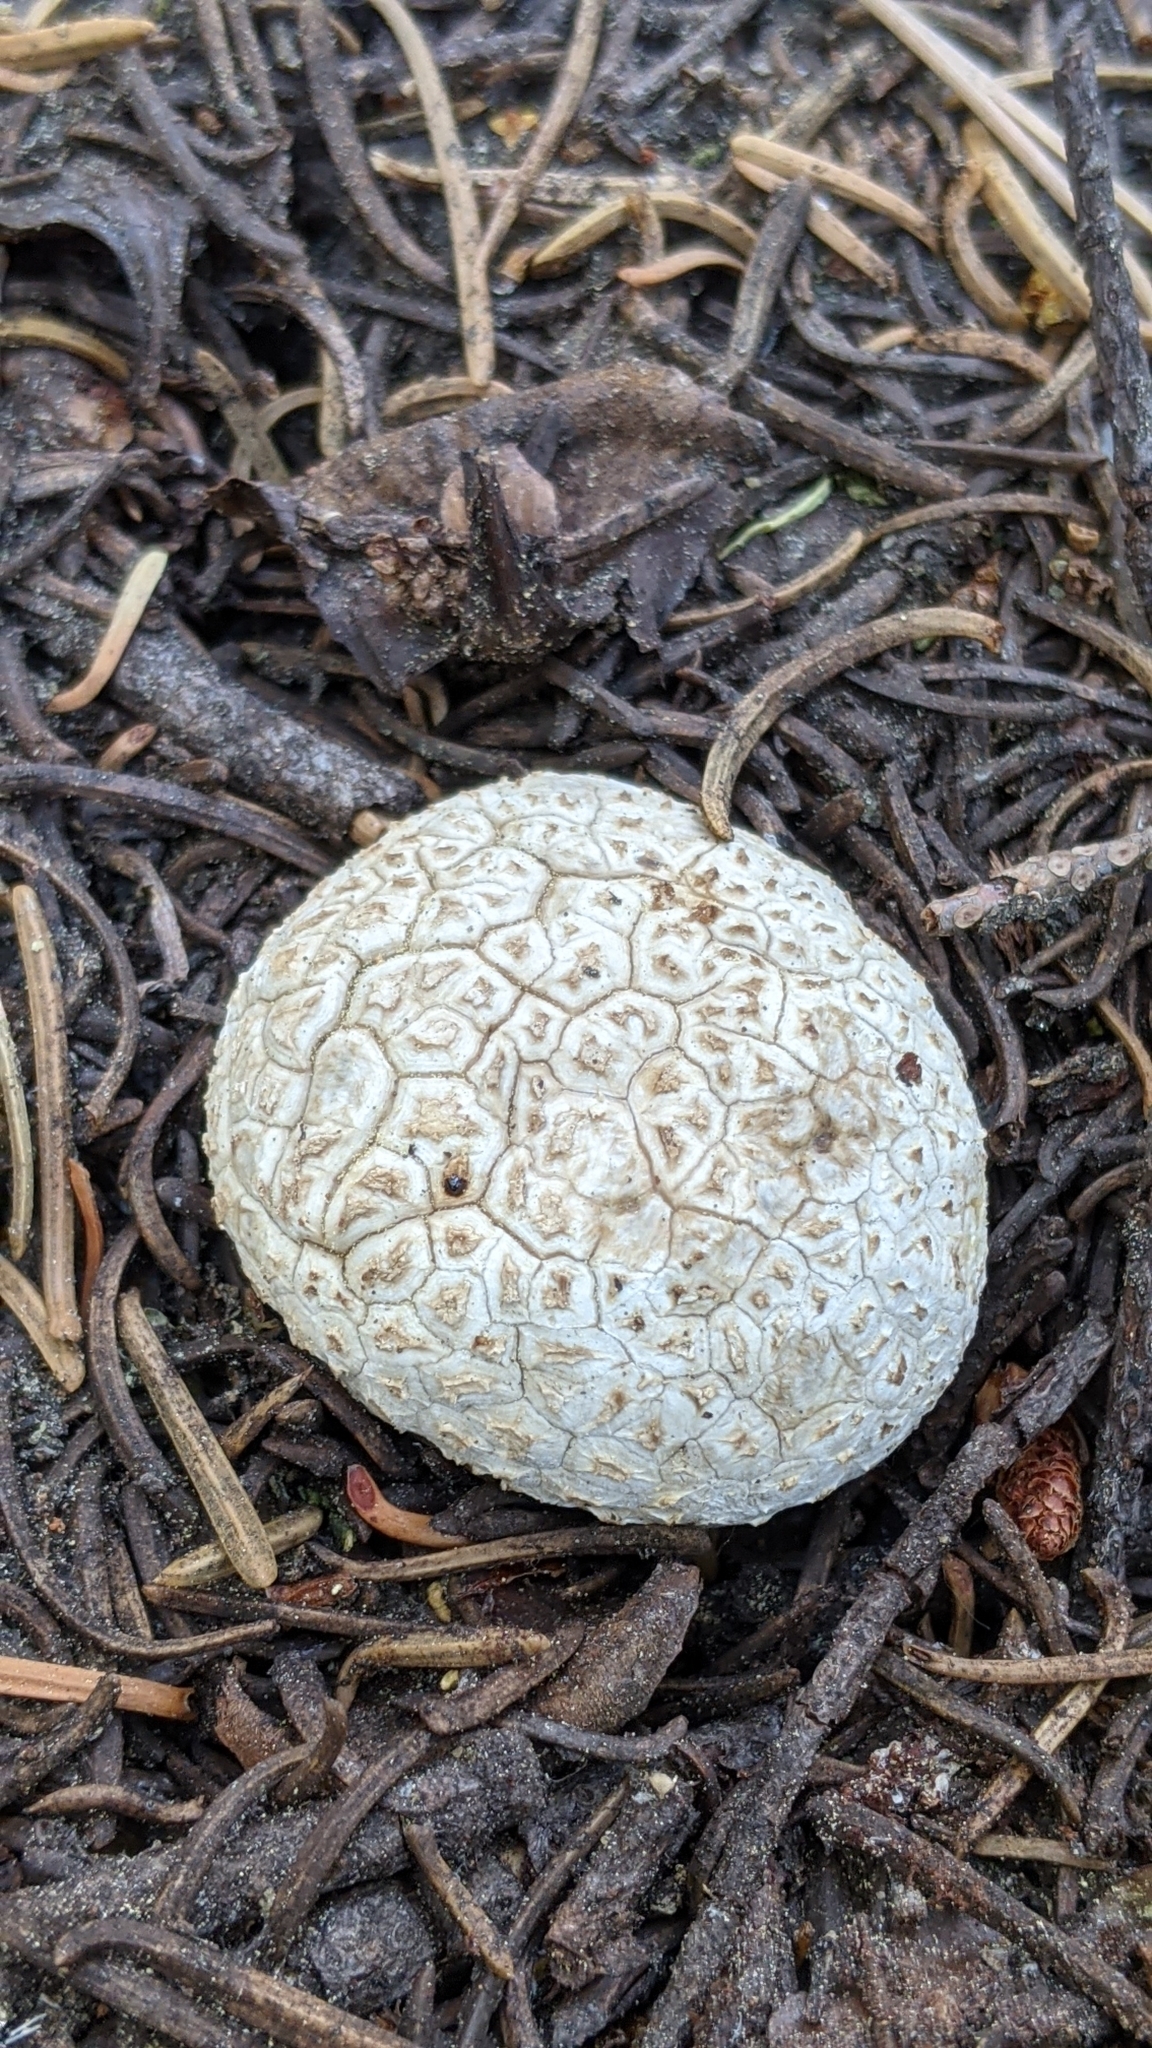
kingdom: Fungi
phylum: Basidiomycota
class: Agaricomycetes
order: Agaricales
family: Lycoperdaceae
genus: Calbovista
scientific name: Calbovista subsculpta
